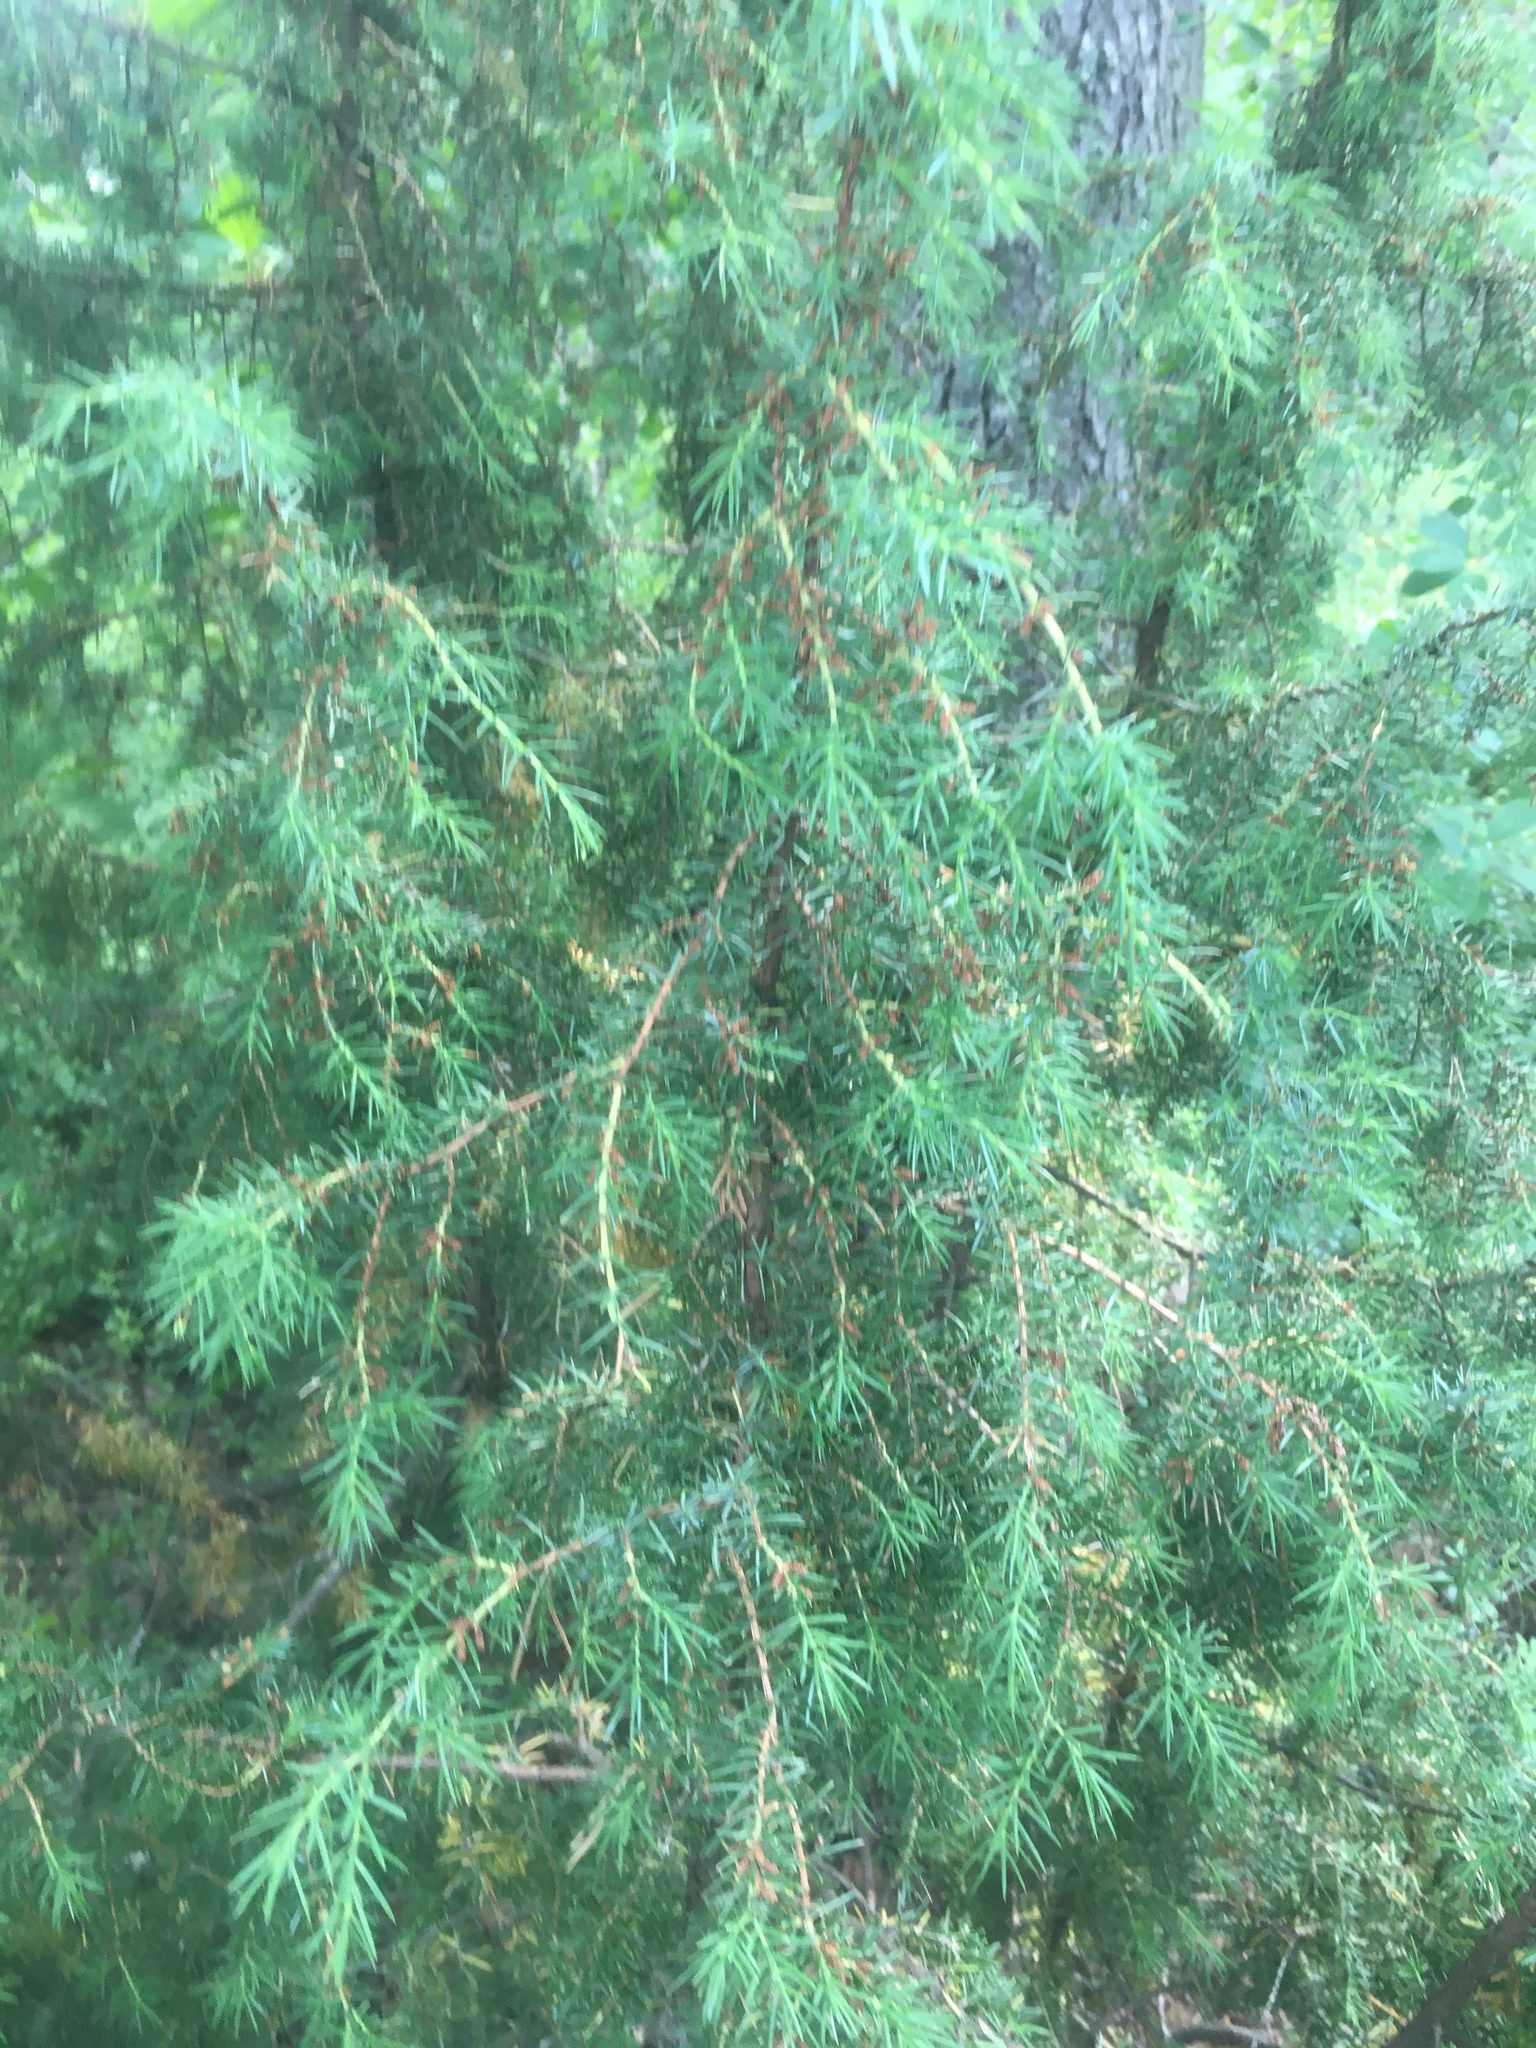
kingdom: Plantae
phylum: Tracheophyta
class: Pinopsida
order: Pinales
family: Cupressaceae
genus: Juniperus
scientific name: Juniperus communis
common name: Common juniper
